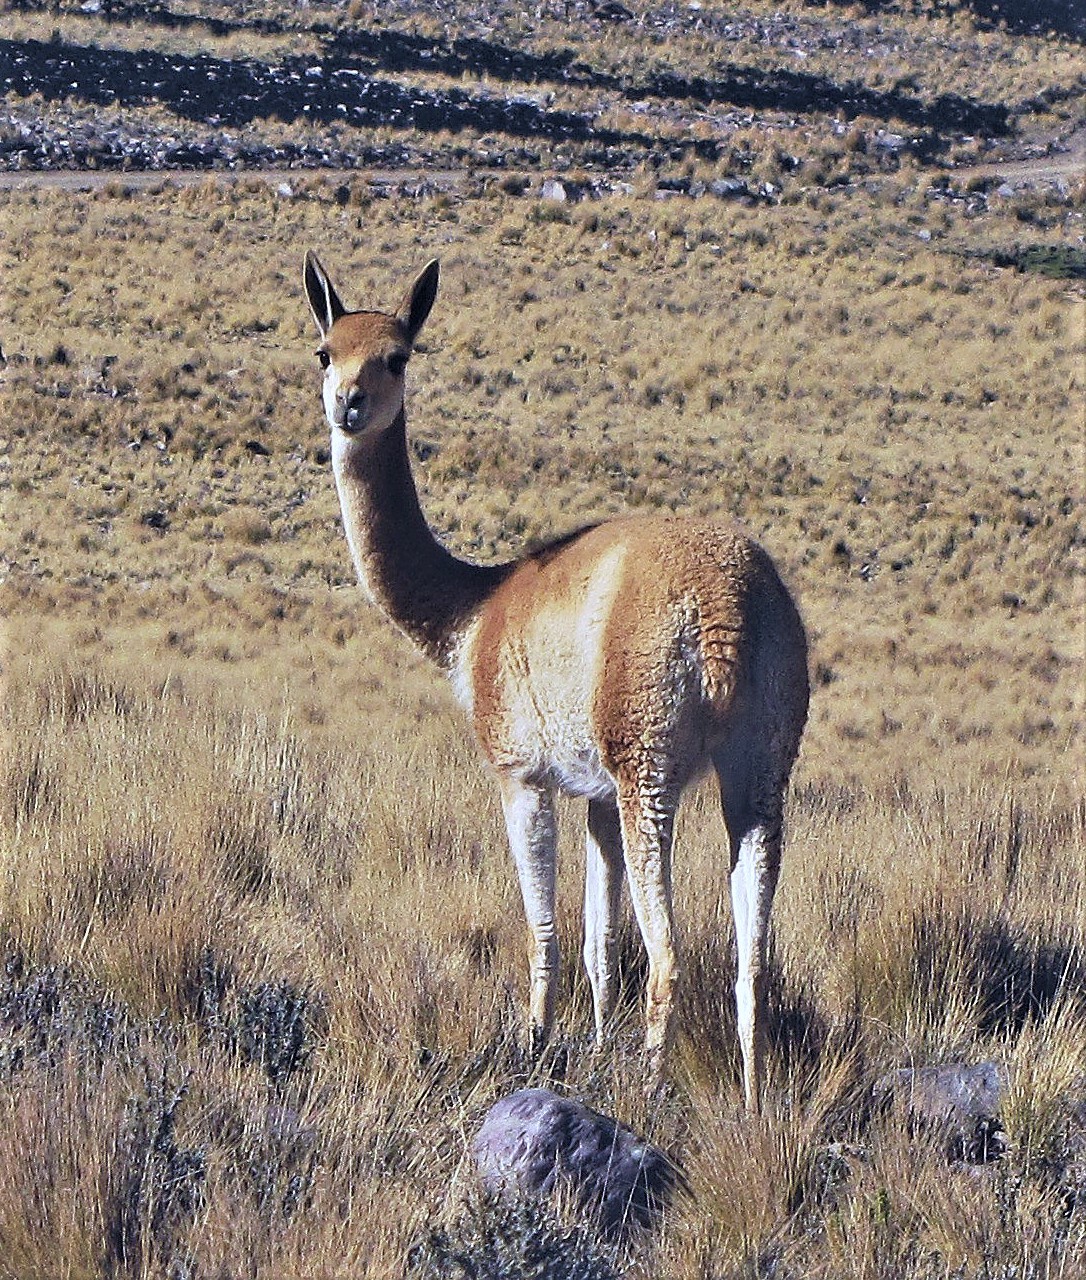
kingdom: Animalia
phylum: Chordata
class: Mammalia
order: Artiodactyla
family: Camelidae
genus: Vicugna
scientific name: Vicugna vicugna
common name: Vicugna
